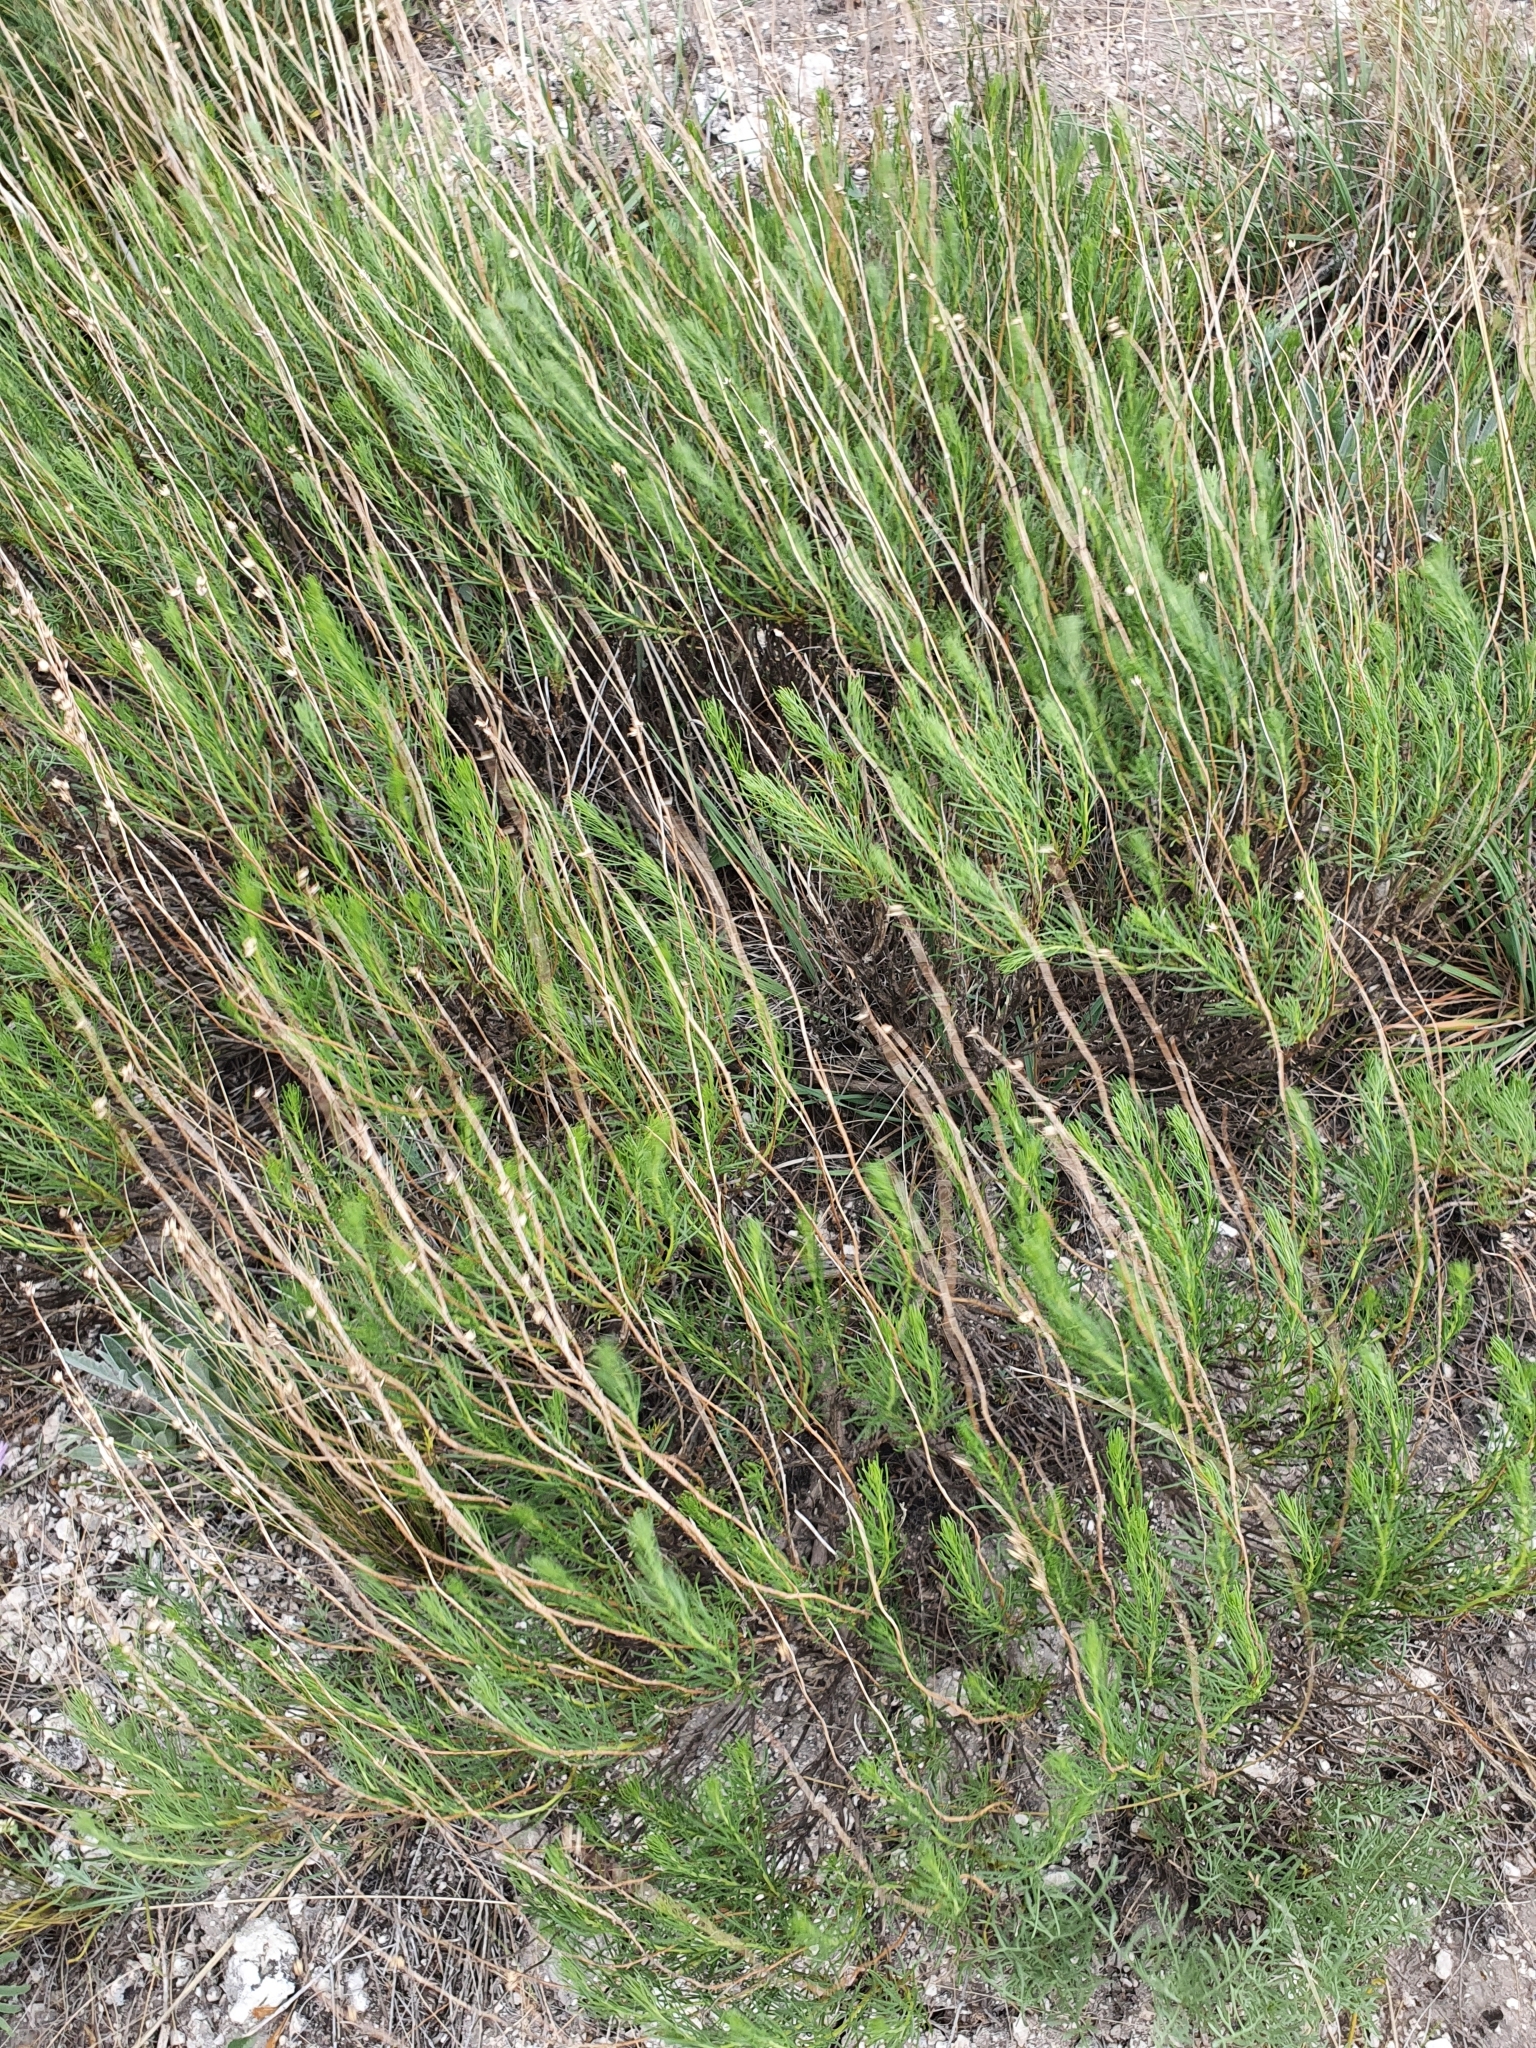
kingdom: Plantae
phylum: Tracheophyta
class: Magnoliopsida
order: Asterales
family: Asteraceae
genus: Artemisia
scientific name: Artemisia salsoloides
